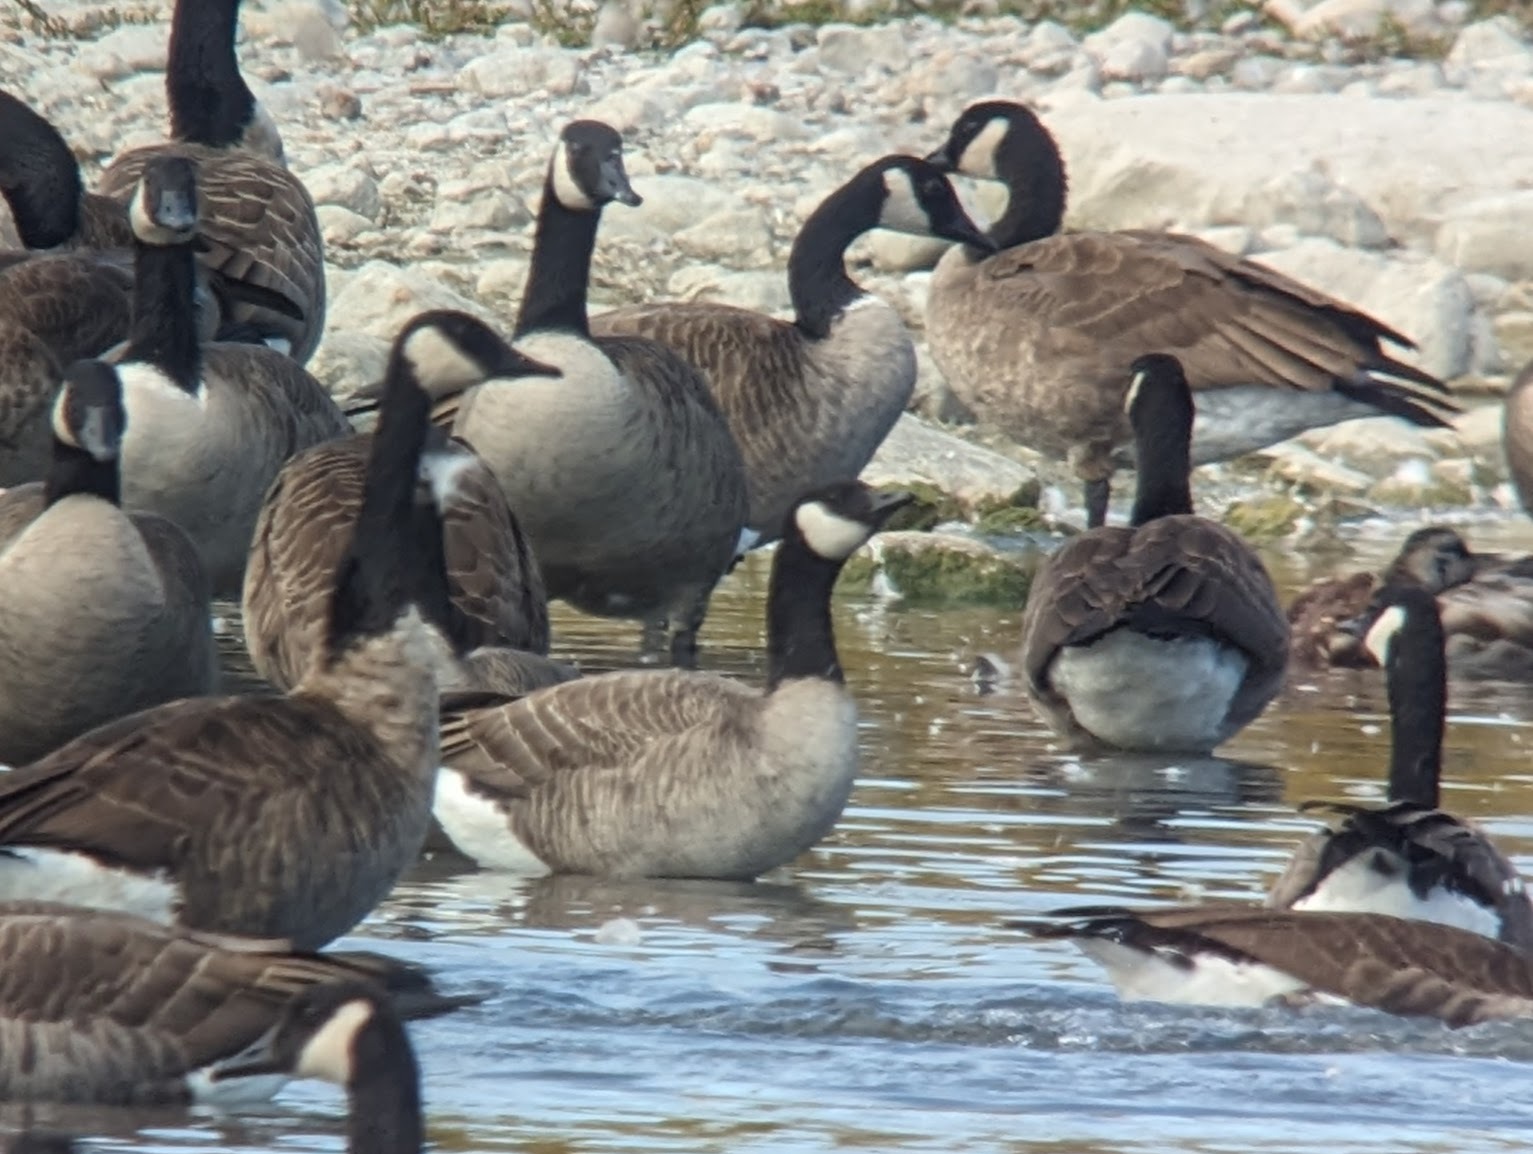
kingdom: Animalia
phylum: Chordata
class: Aves
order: Anseriformes
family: Anatidae
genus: Branta
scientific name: Branta hutchinsii
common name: Cackling goose
